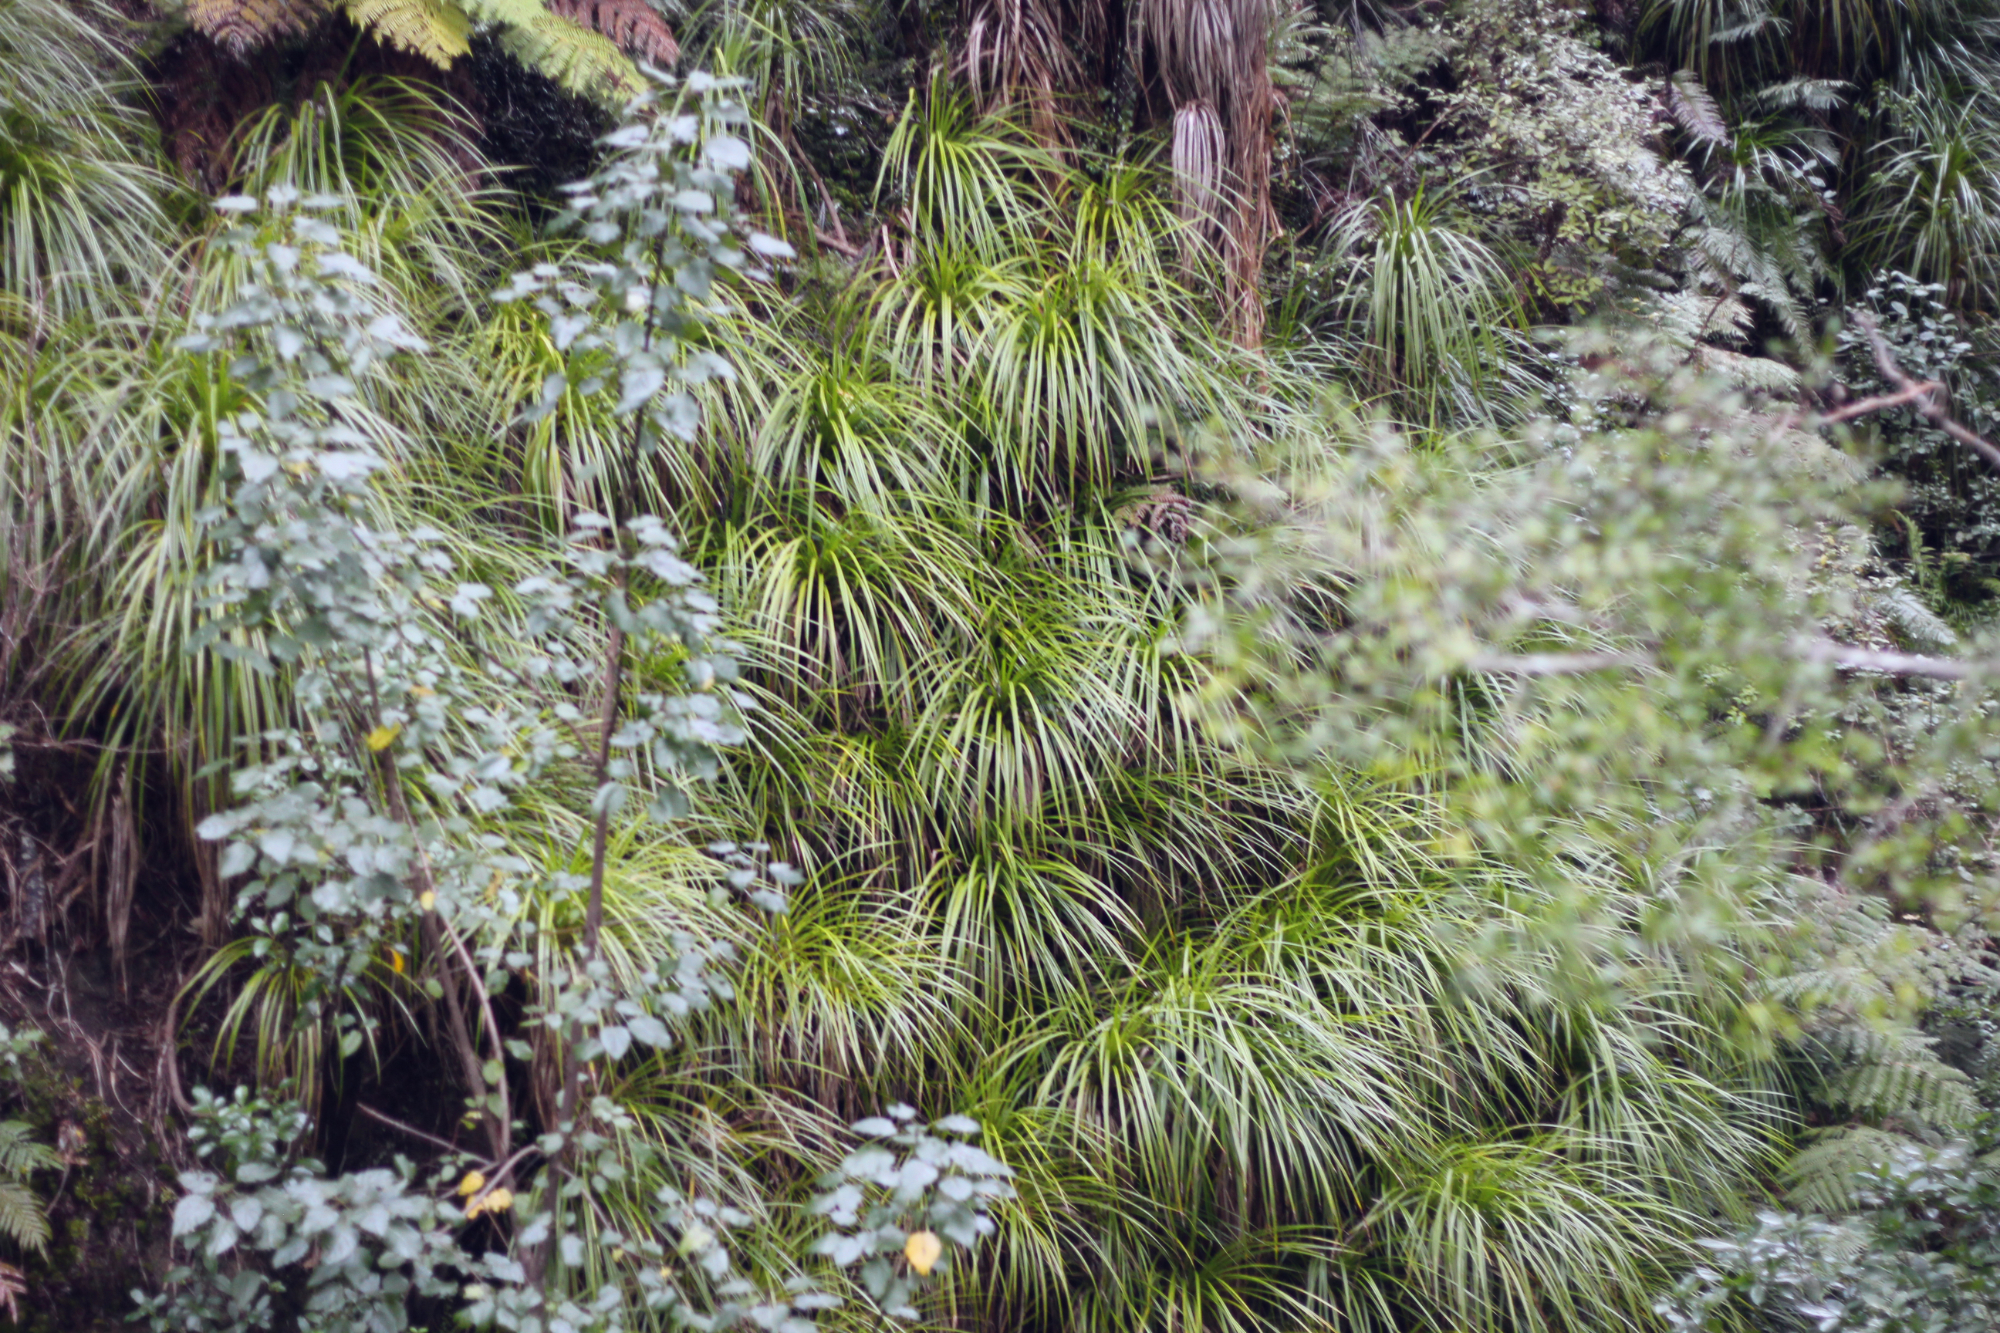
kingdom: Plantae
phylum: Tracheophyta
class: Liliopsida
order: Pandanales
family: Pandanaceae
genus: Freycinetia
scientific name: Freycinetia banksii
